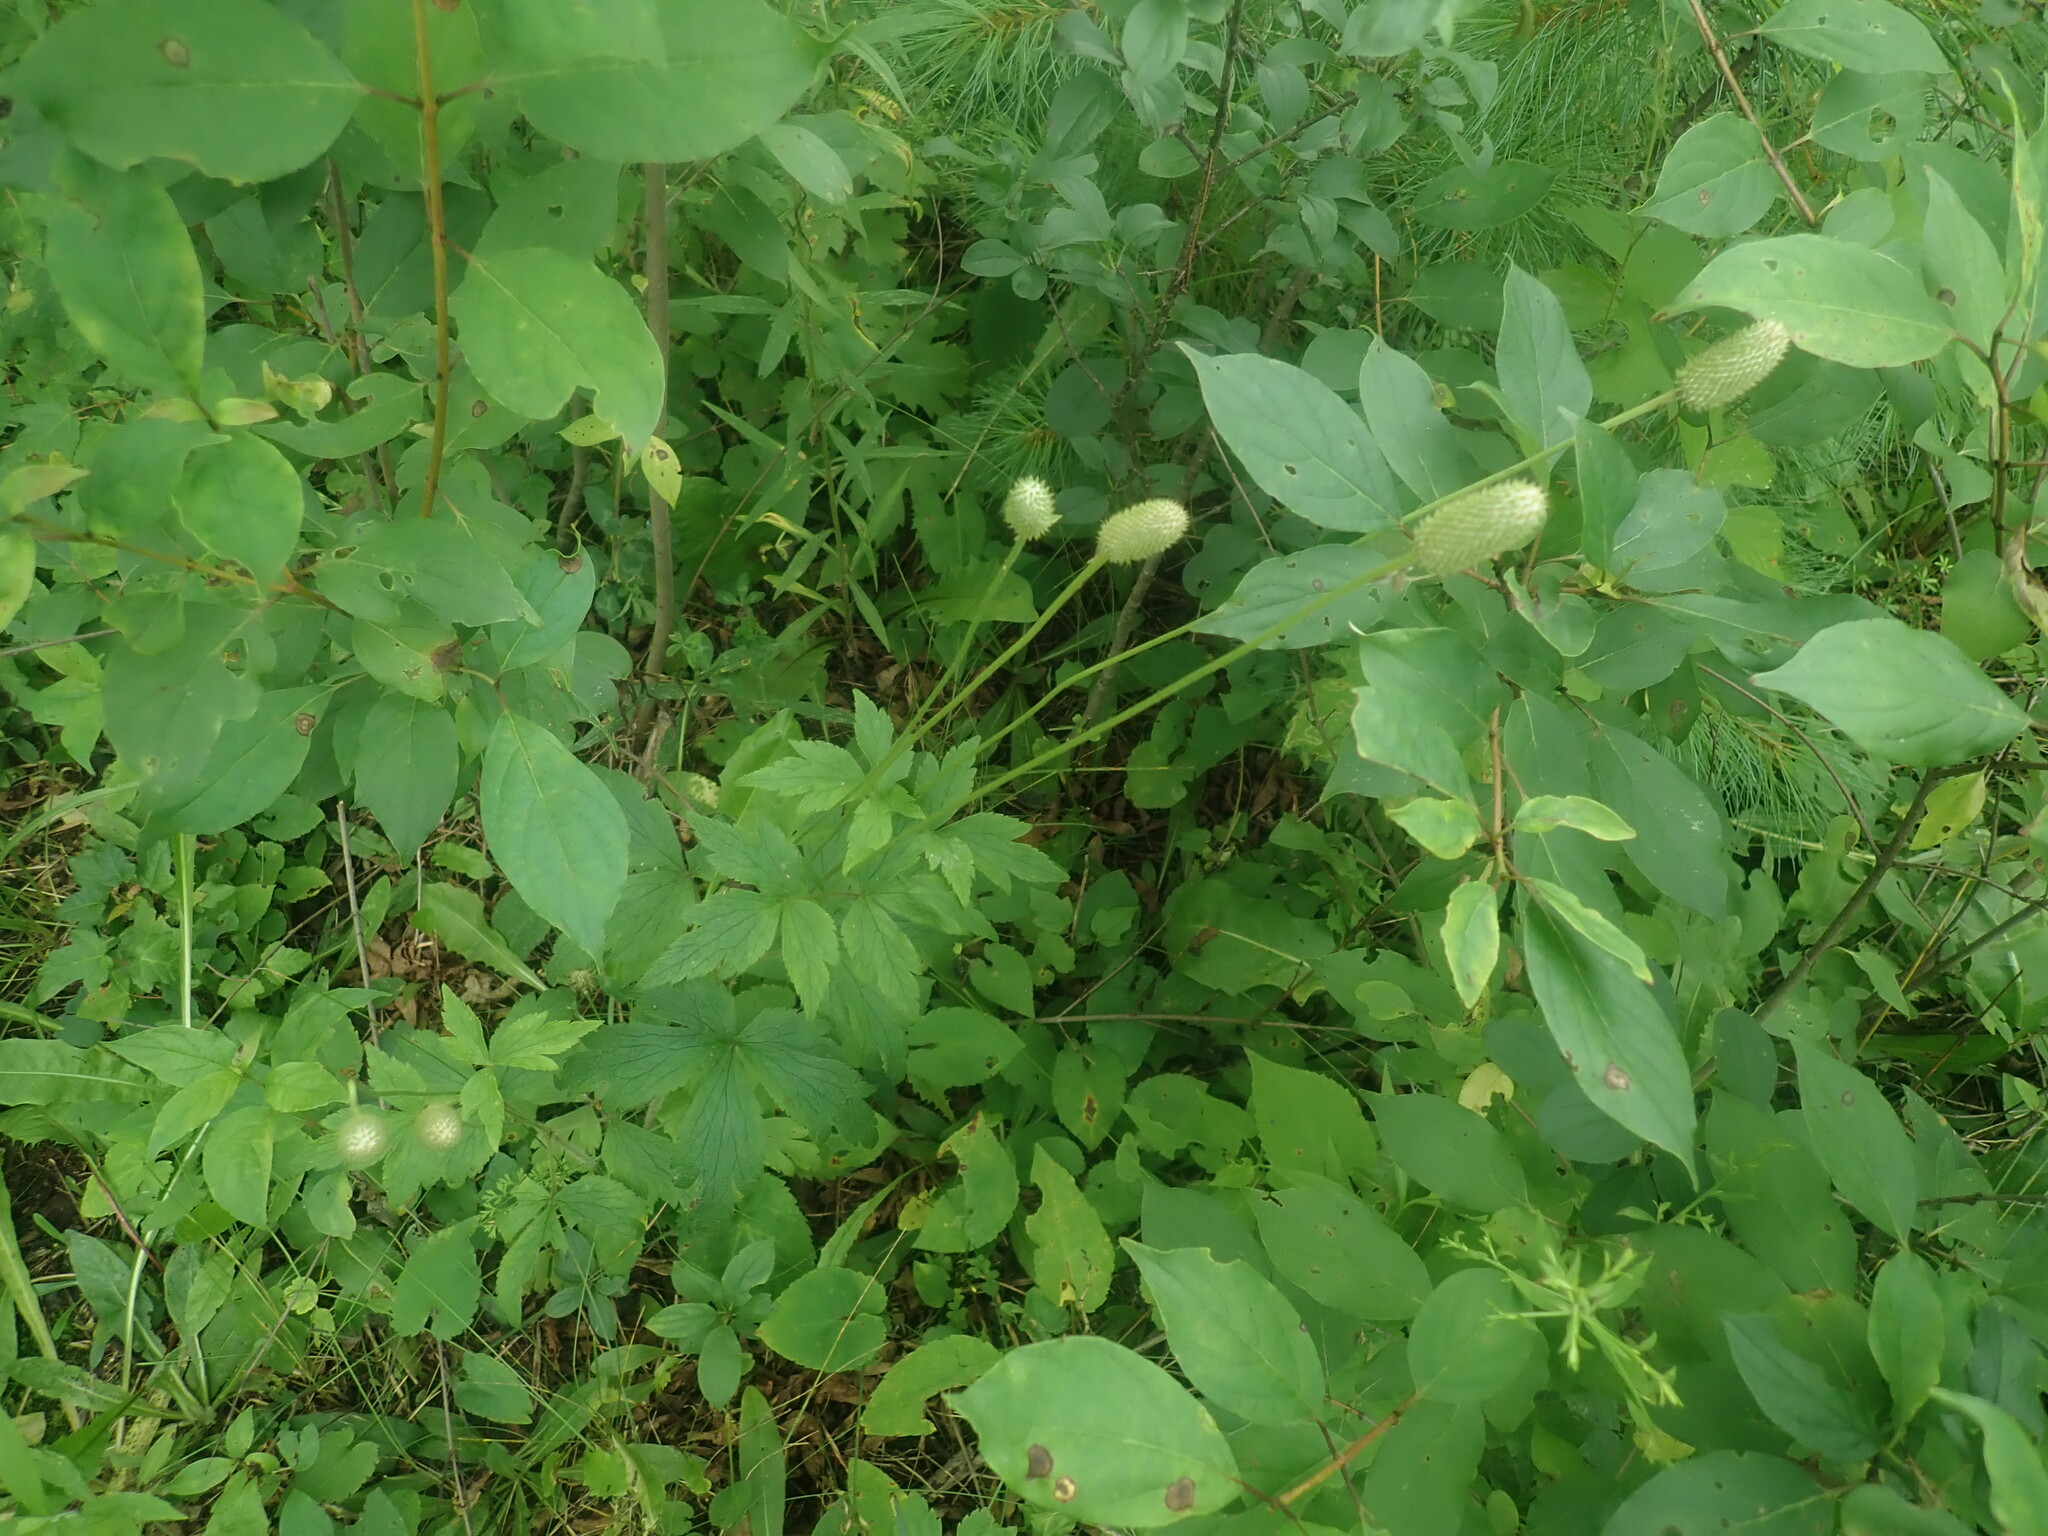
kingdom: Plantae
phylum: Tracheophyta
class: Magnoliopsida
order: Ranunculales
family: Ranunculaceae
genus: Anemone
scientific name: Anemone virginiana
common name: Tall anemone
